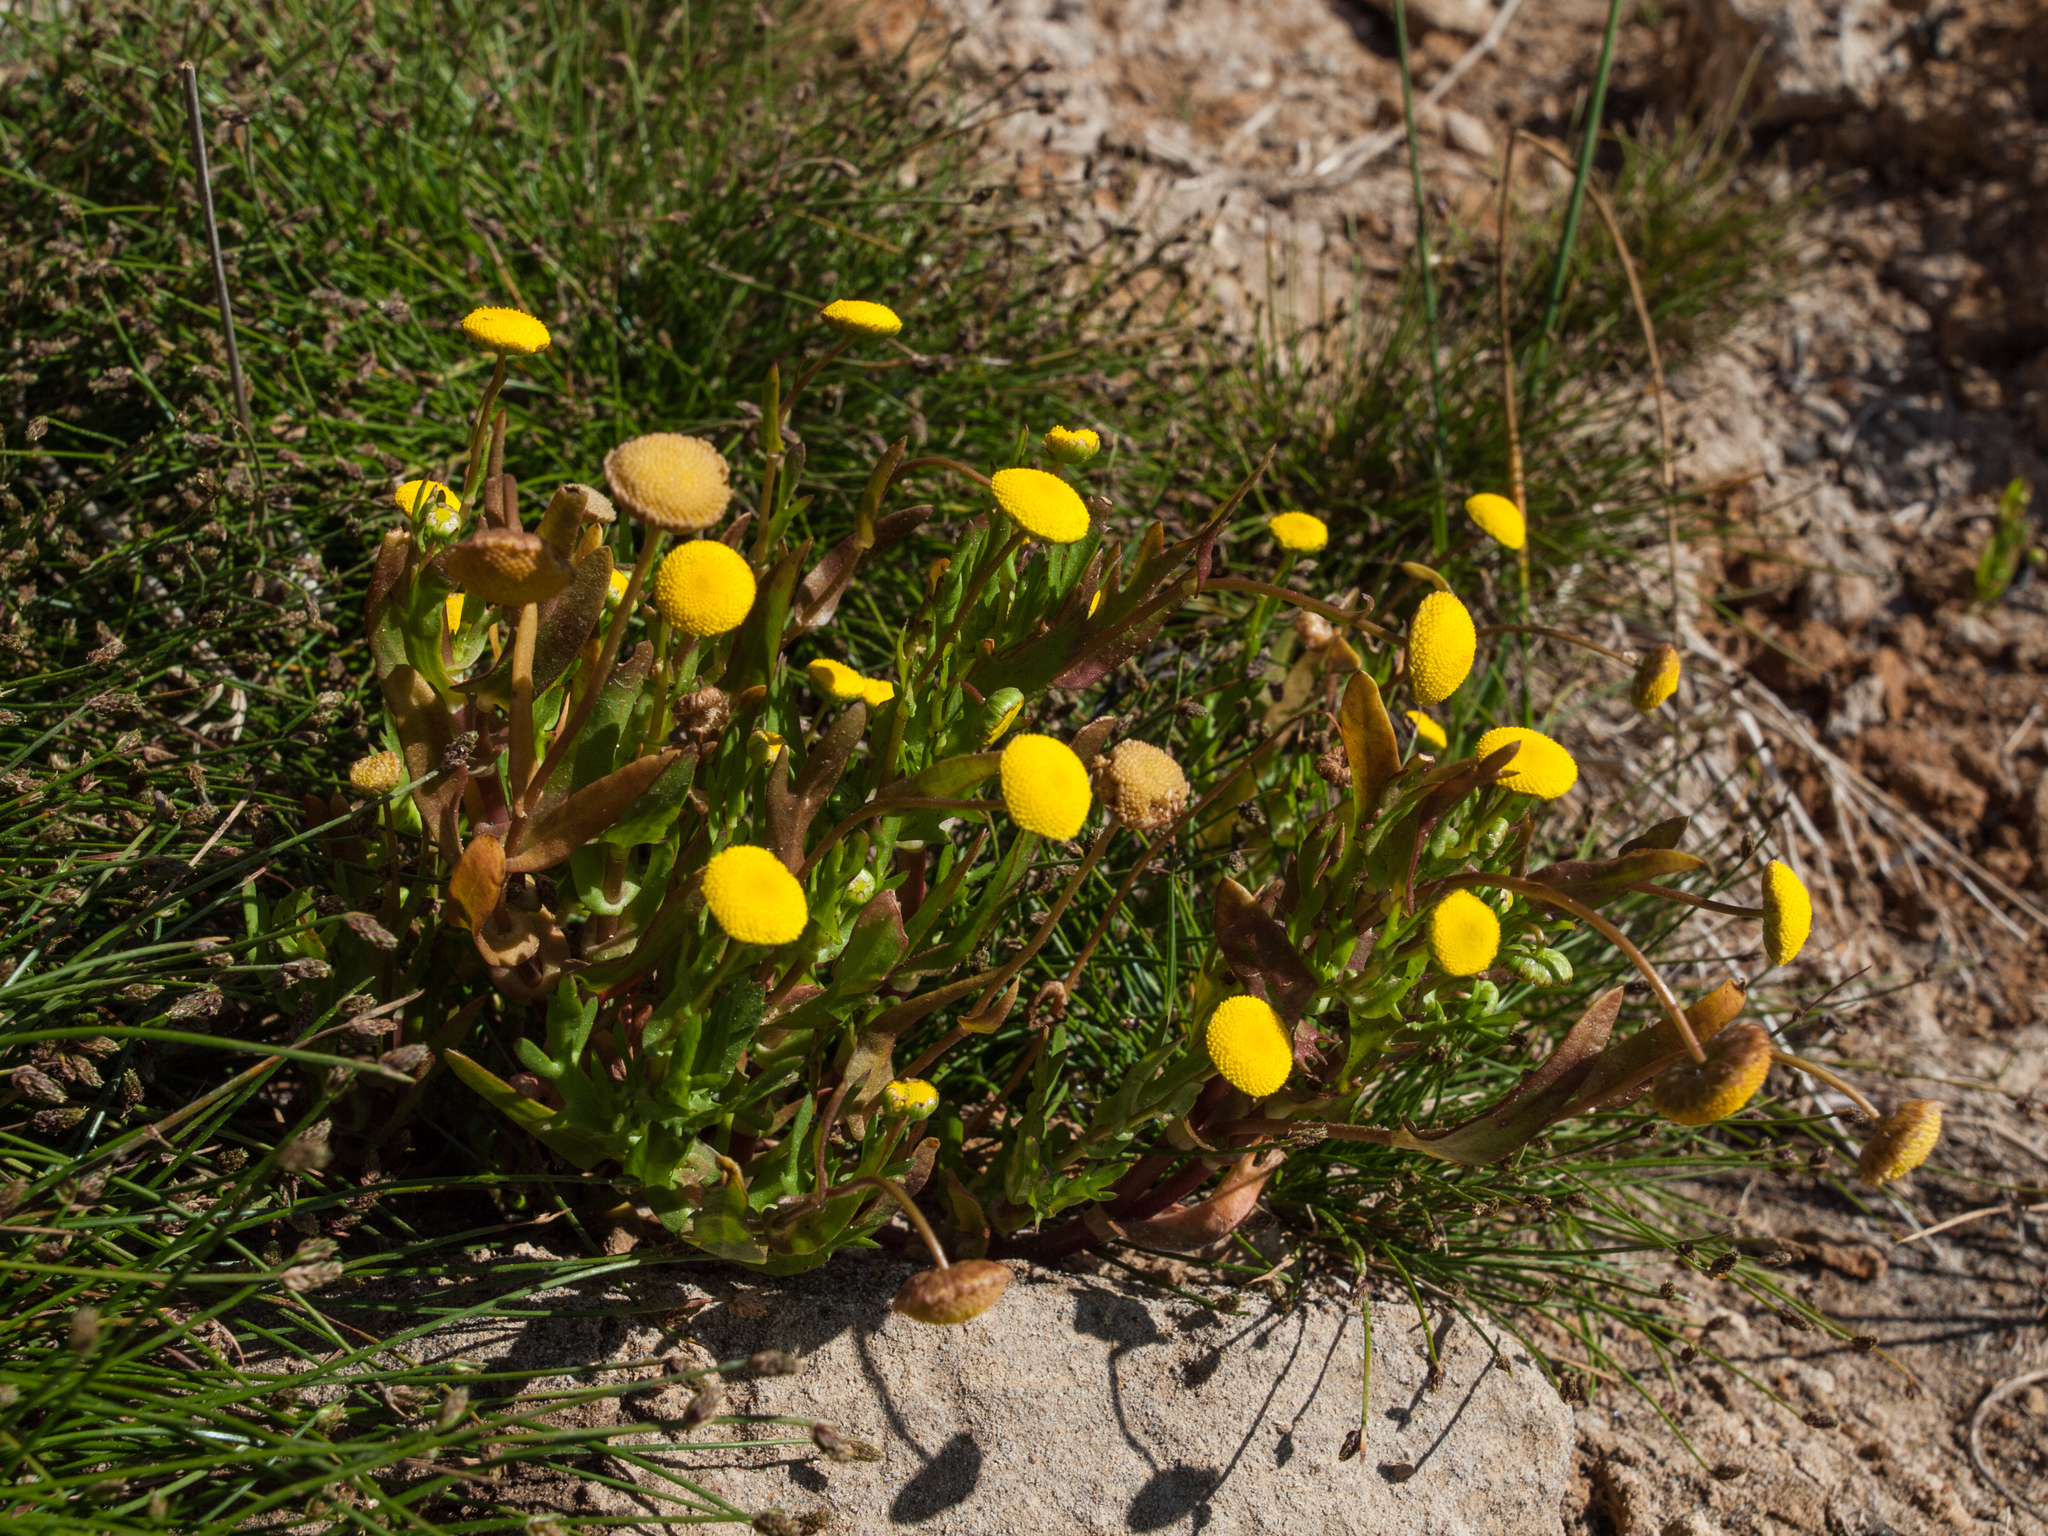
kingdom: Plantae
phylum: Tracheophyta
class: Magnoliopsida
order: Asterales
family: Asteraceae
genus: Cotula
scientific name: Cotula coronopifolia
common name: Buttonweed
